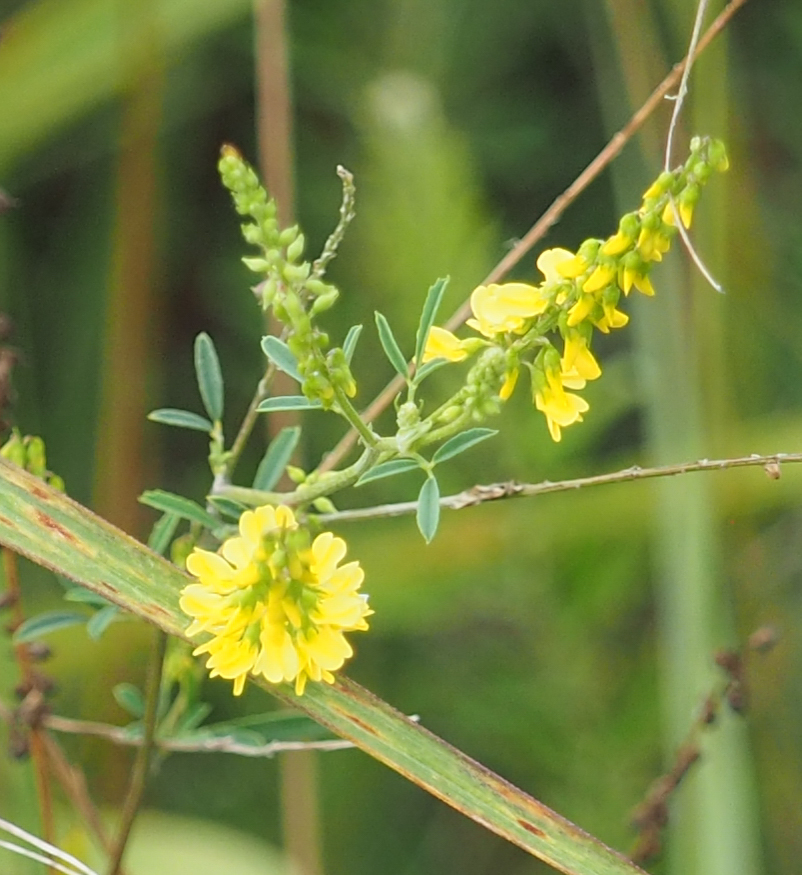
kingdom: Plantae
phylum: Tracheophyta
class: Magnoliopsida
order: Fabales
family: Fabaceae
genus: Melilotus
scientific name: Melilotus officinalis
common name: Sweetclover
